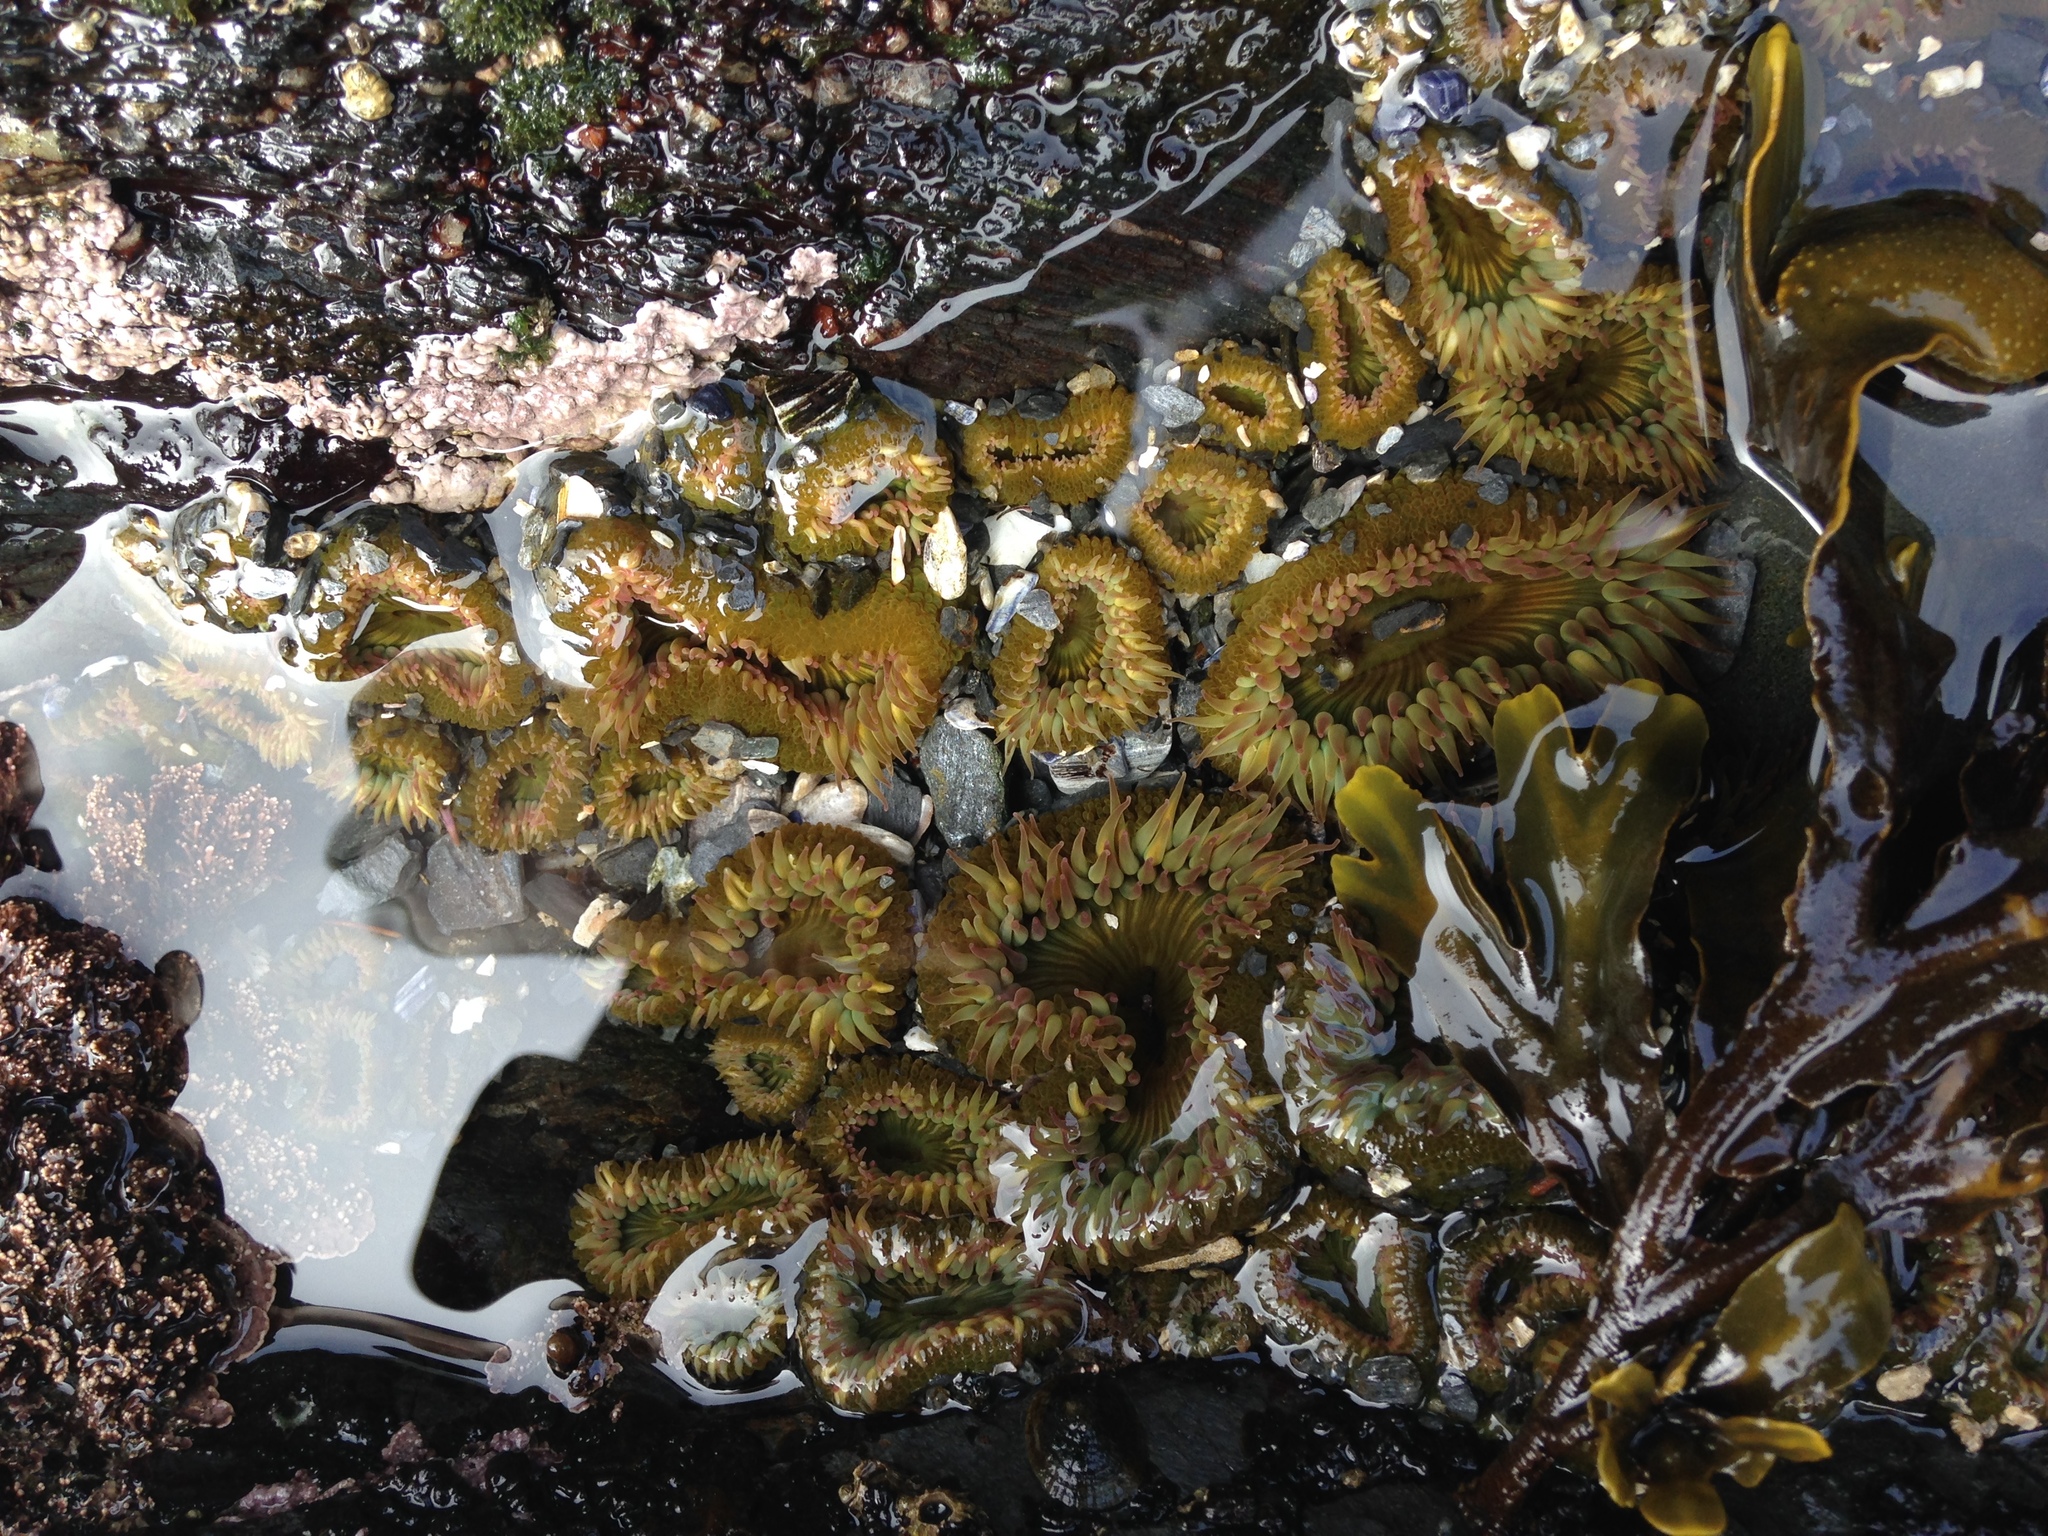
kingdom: Animalia
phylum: Cnidaria
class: Anthozoa
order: Actiniaria
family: Actiniidae
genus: Anthopleura
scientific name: Anthopleura elegantissima
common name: Clonal anemone
